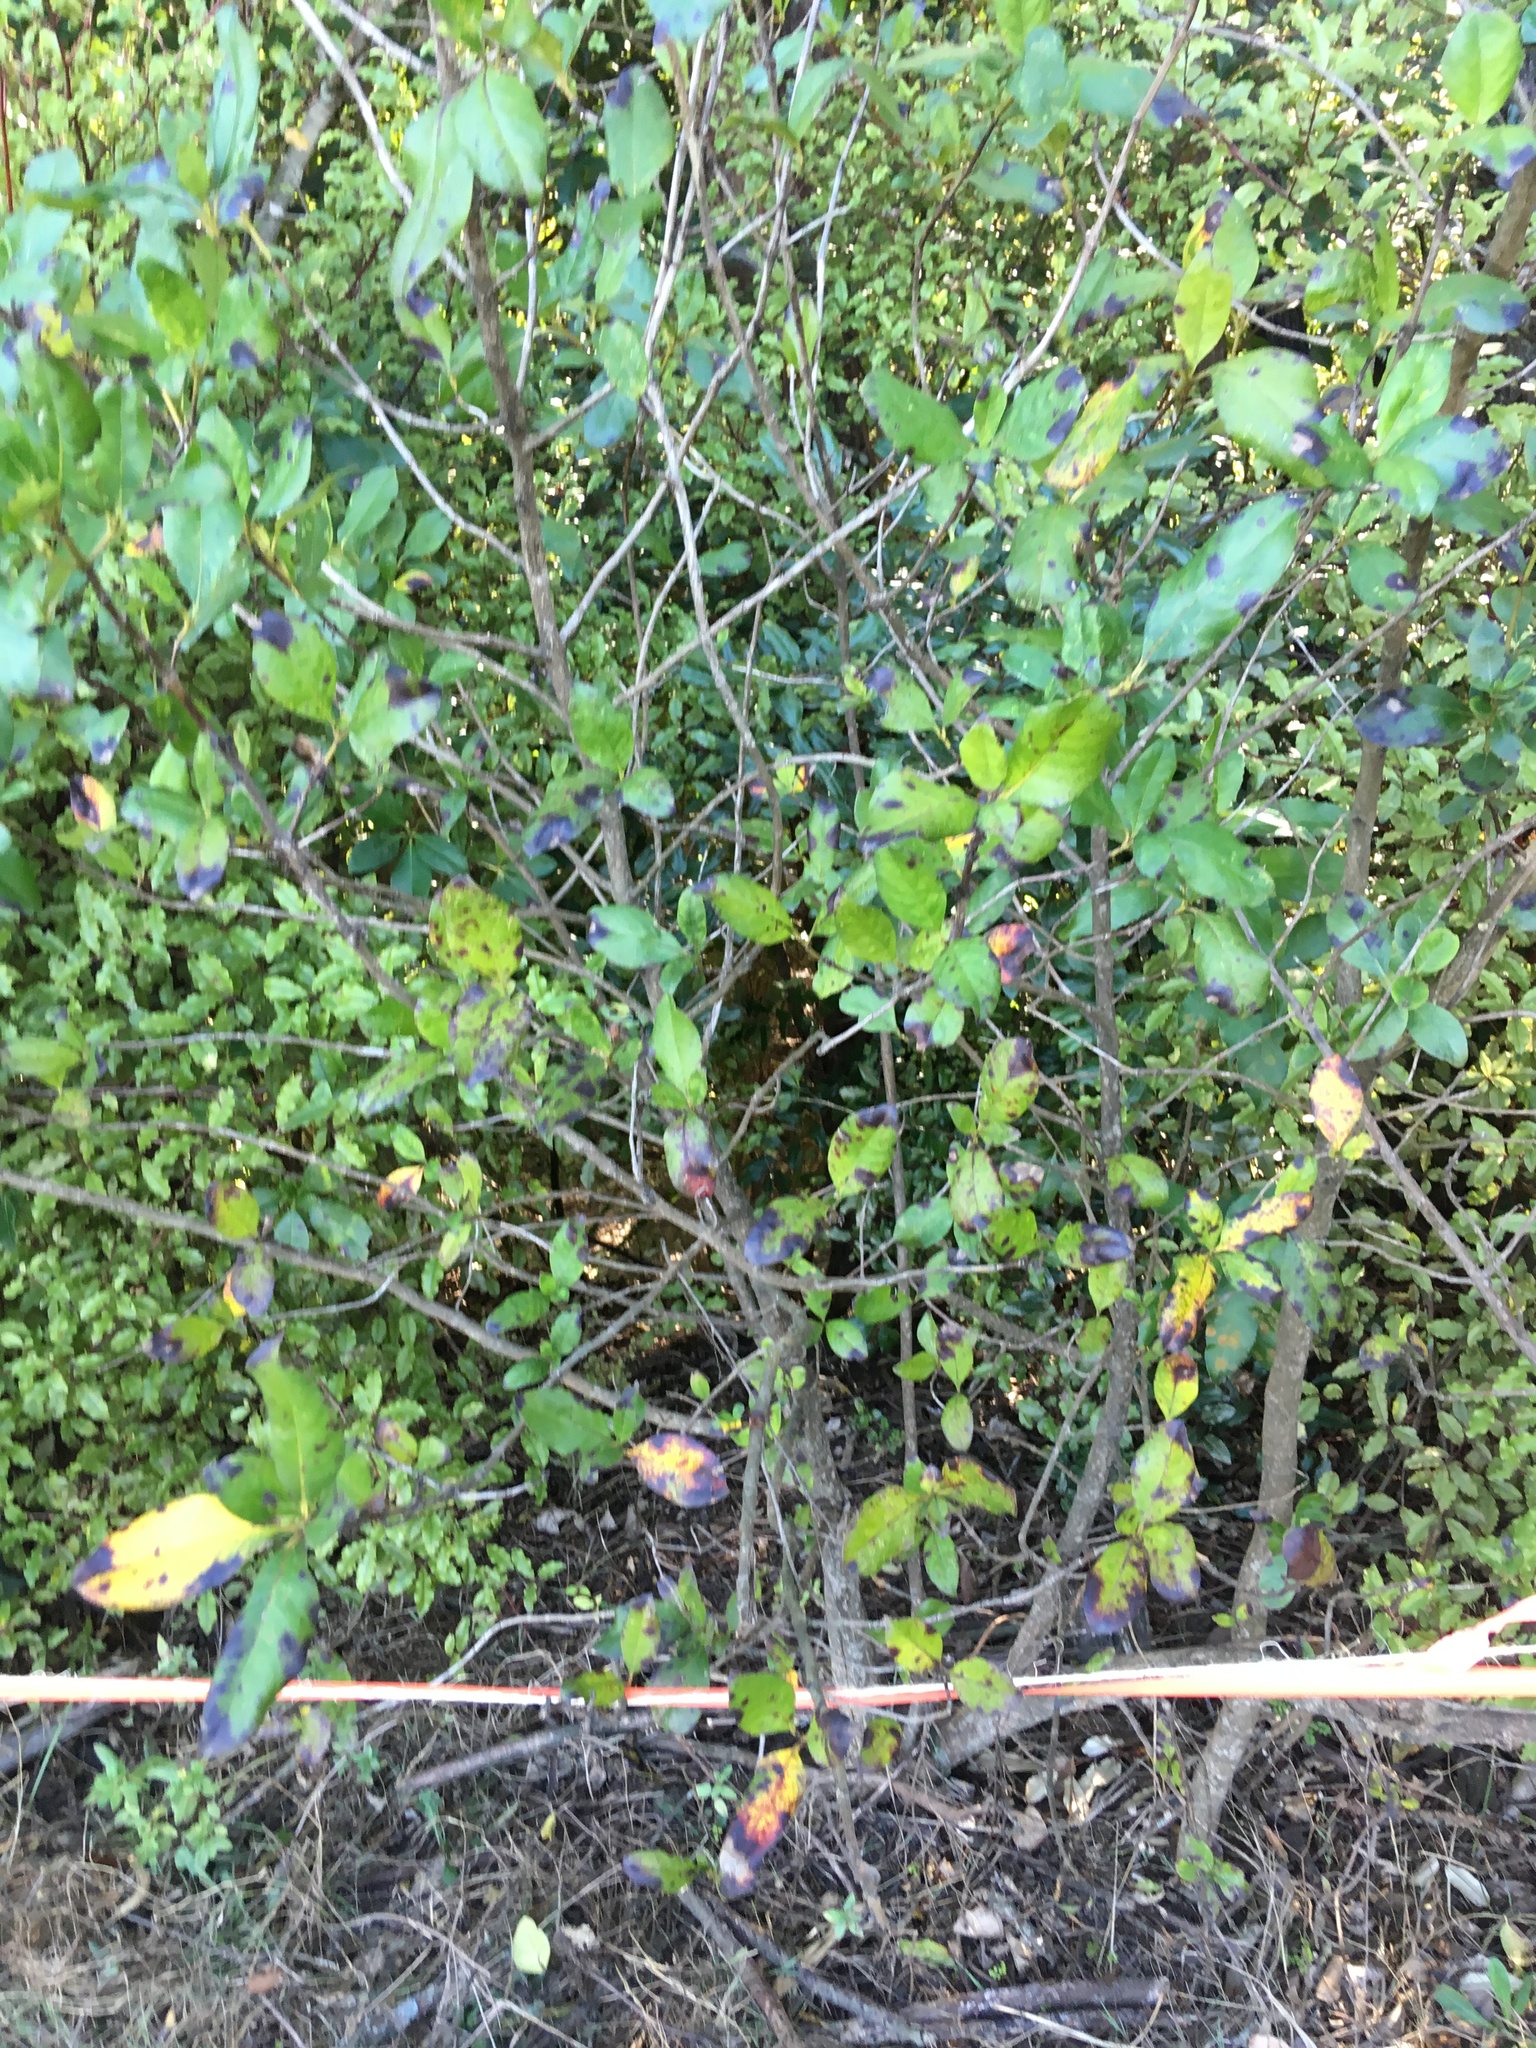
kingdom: Plantae
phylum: Tracheophyta
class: Magnoliopsida
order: Rosales
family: Elaeagnaceae
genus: Elaeagnus
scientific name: Elaeagnus reflexa
